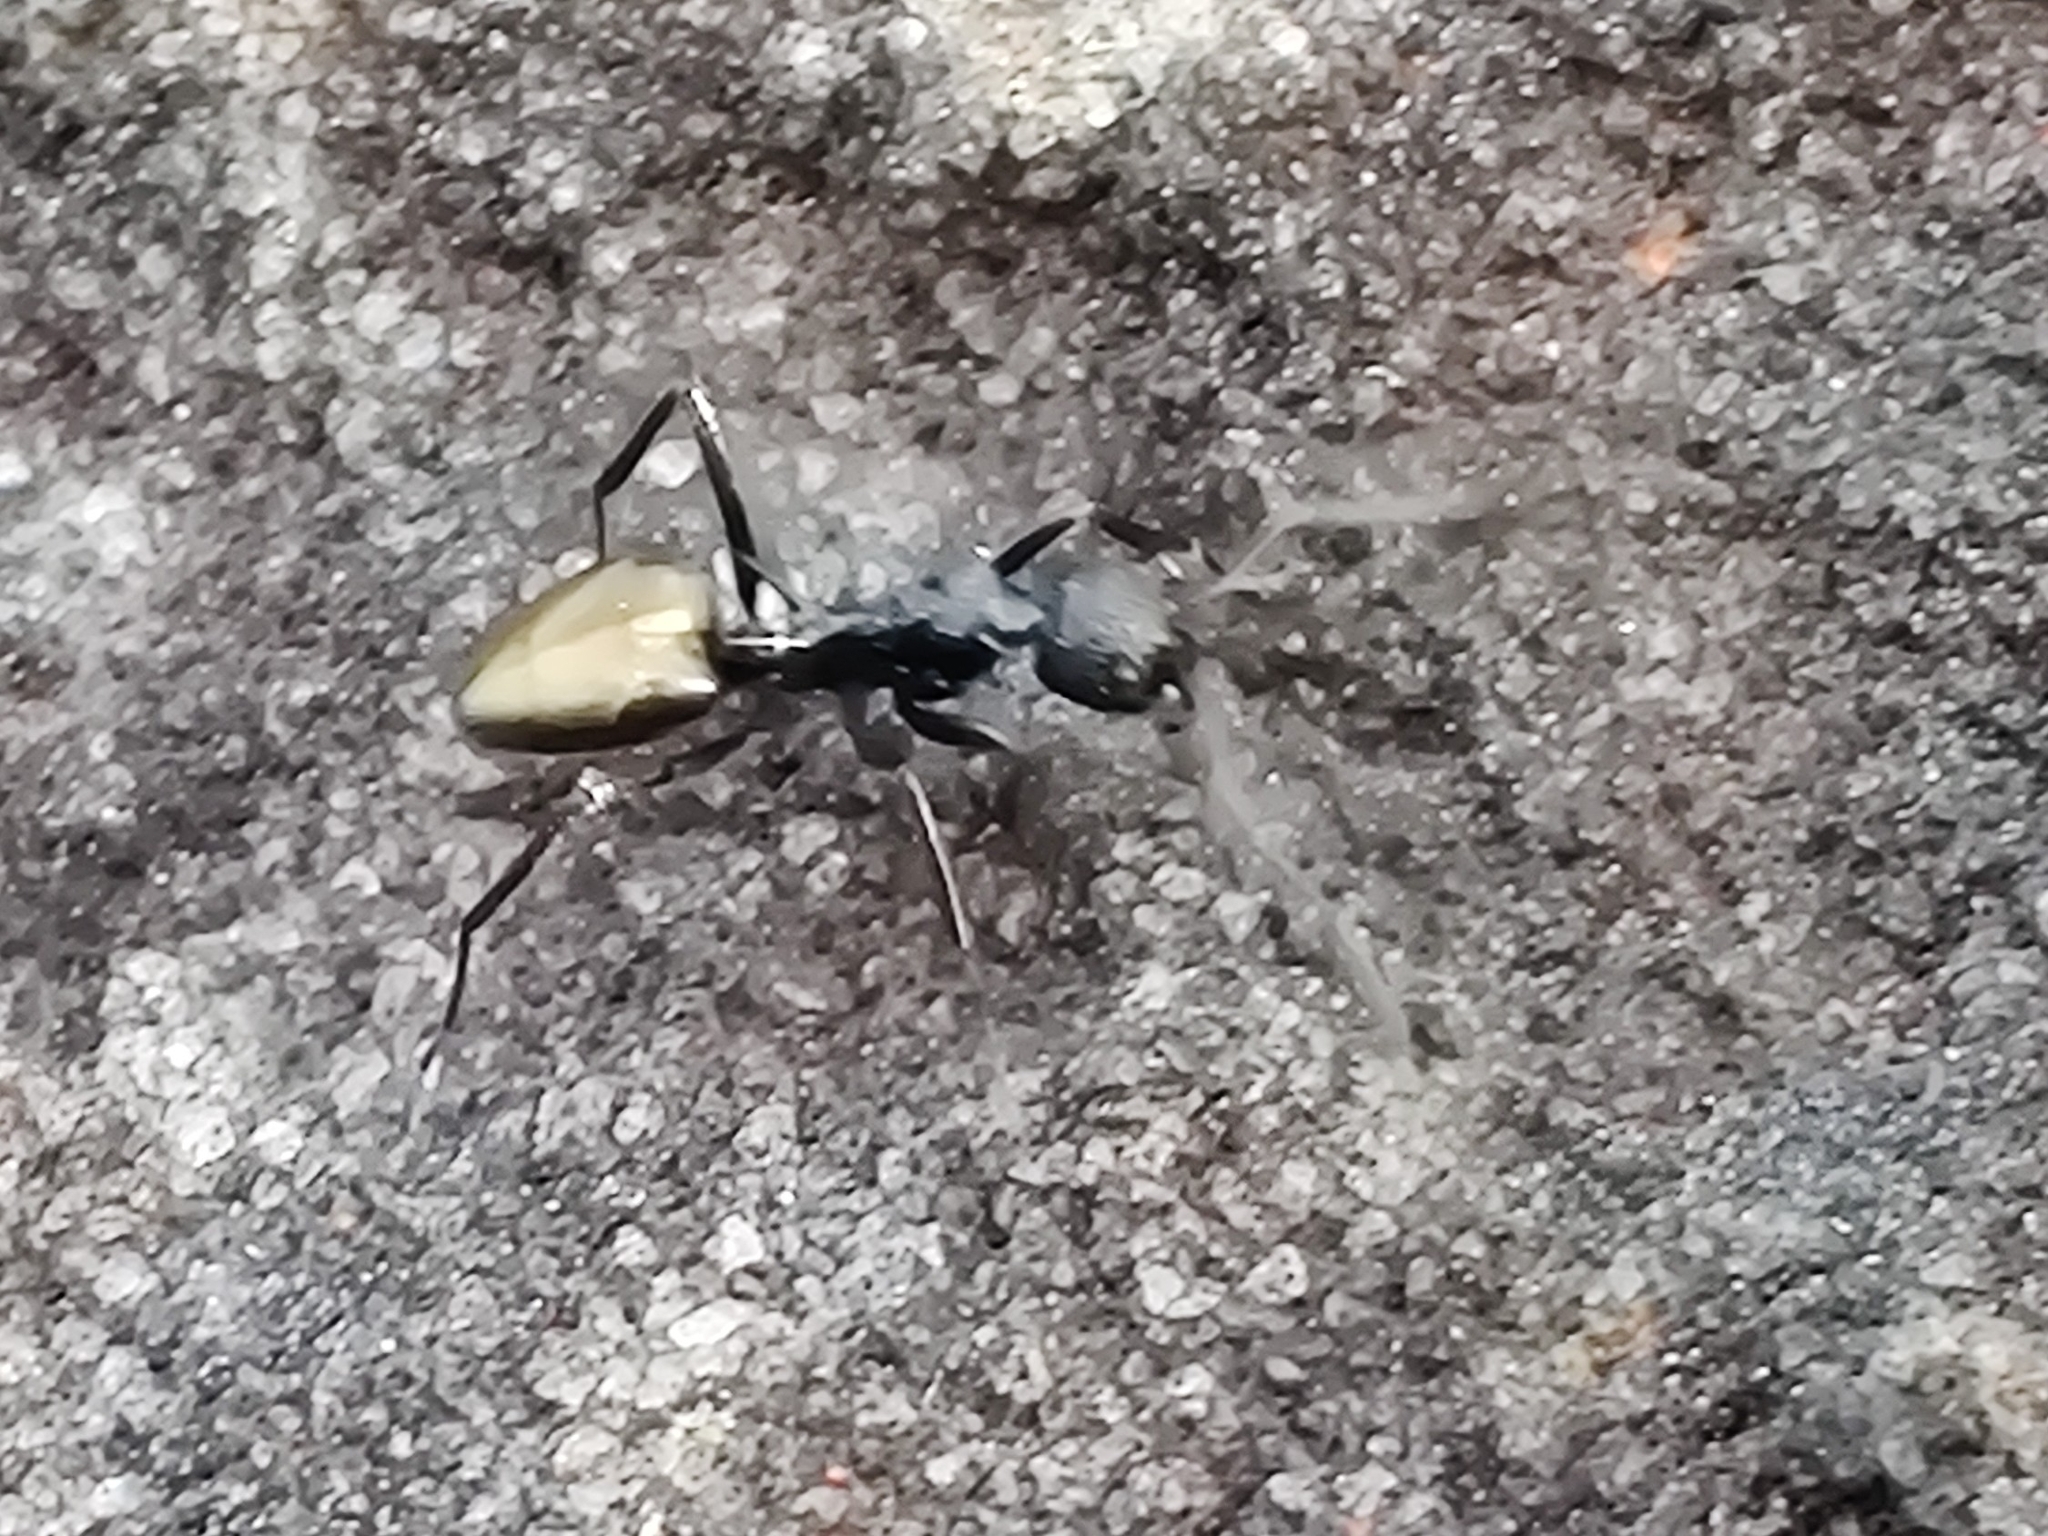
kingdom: Animalia
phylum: Arthropoda
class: Insecta
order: Hymenoptera
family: Formicidae
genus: Dolichoderus
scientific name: Dolichoderus clarki
